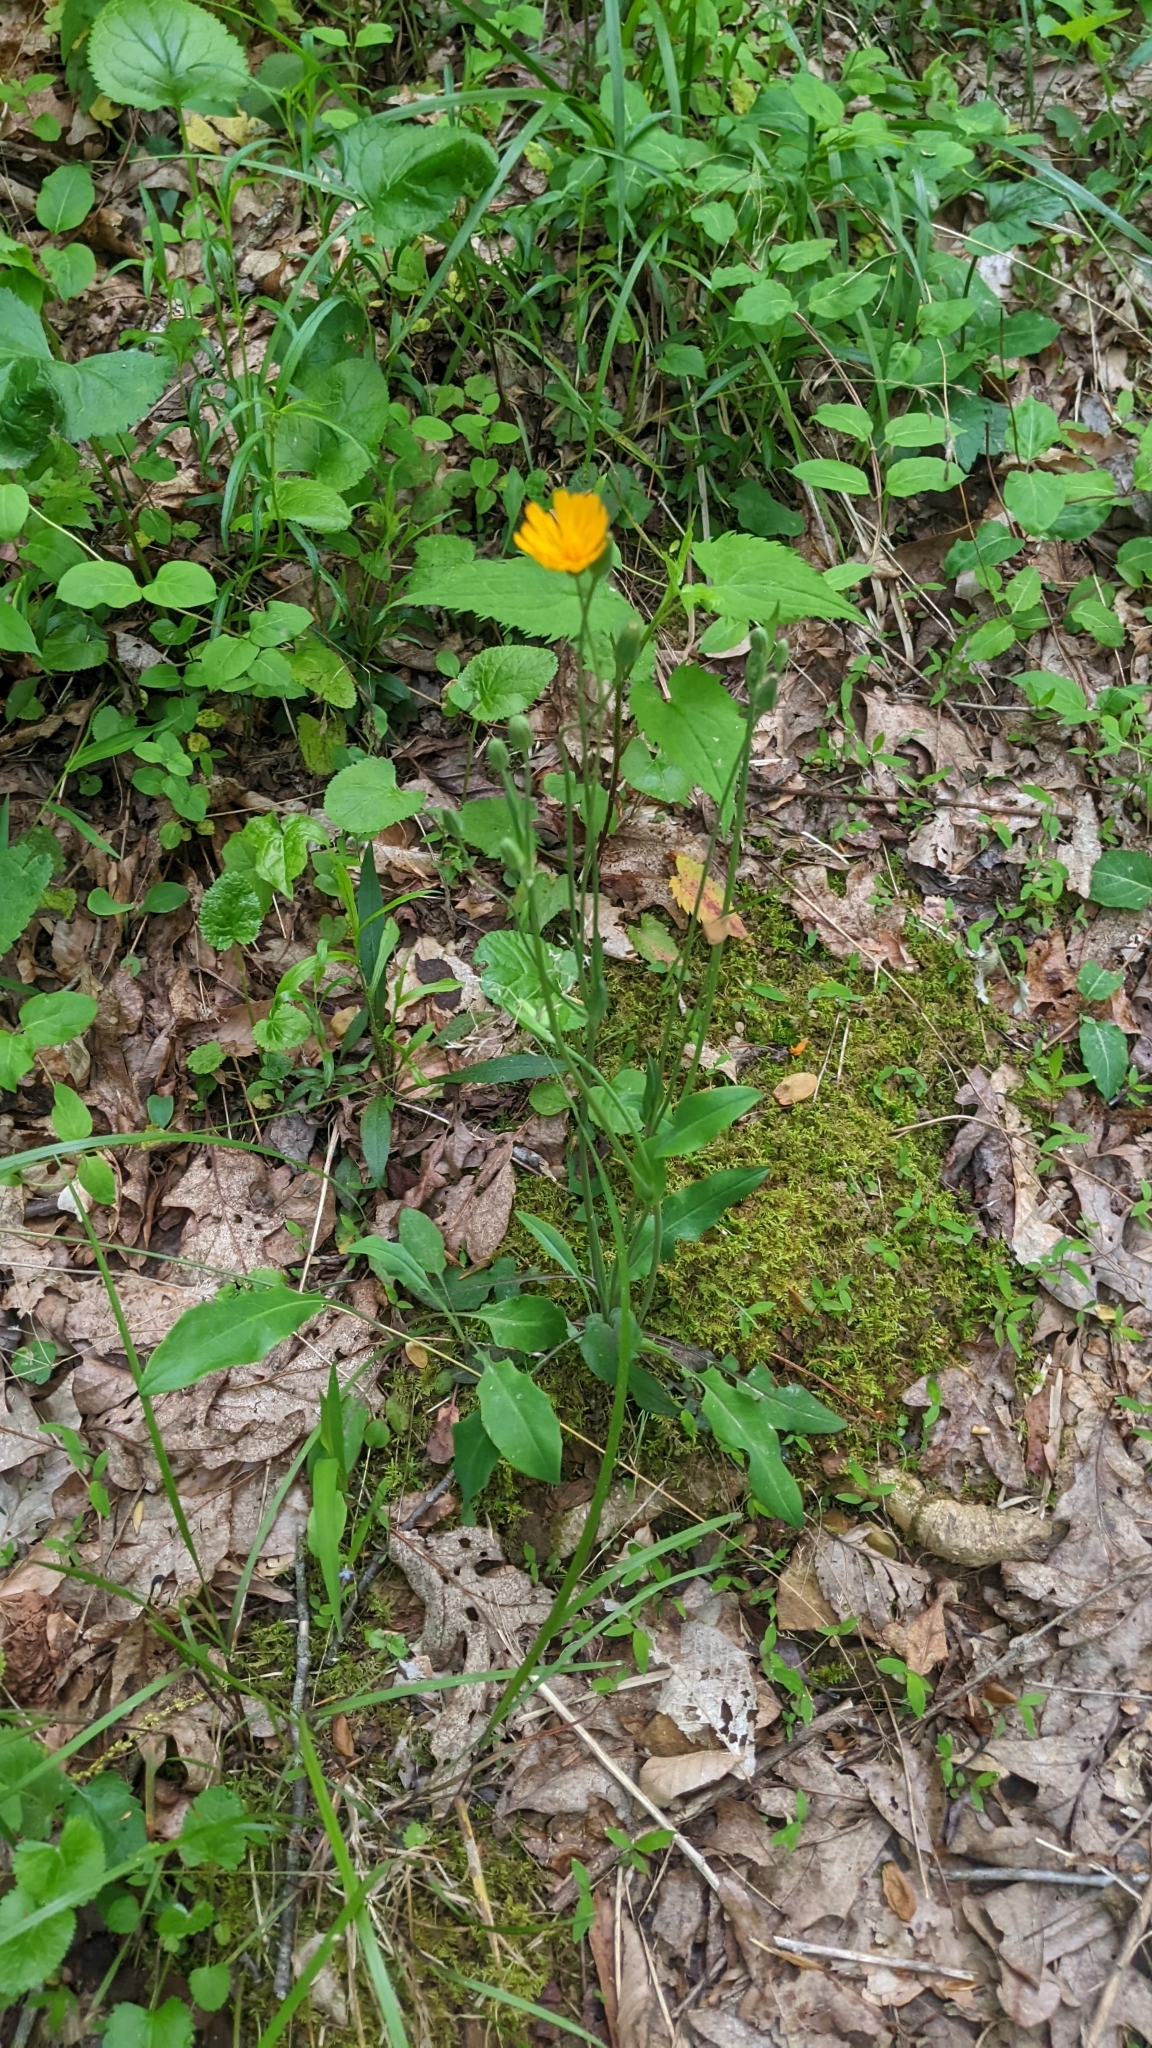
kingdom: Plantae
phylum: Tracheophyta
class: Magnoliopsida
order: Asterales
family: Asteraceae
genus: Krigia
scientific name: Krigia biflora
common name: Orange dwarf-dandelion
